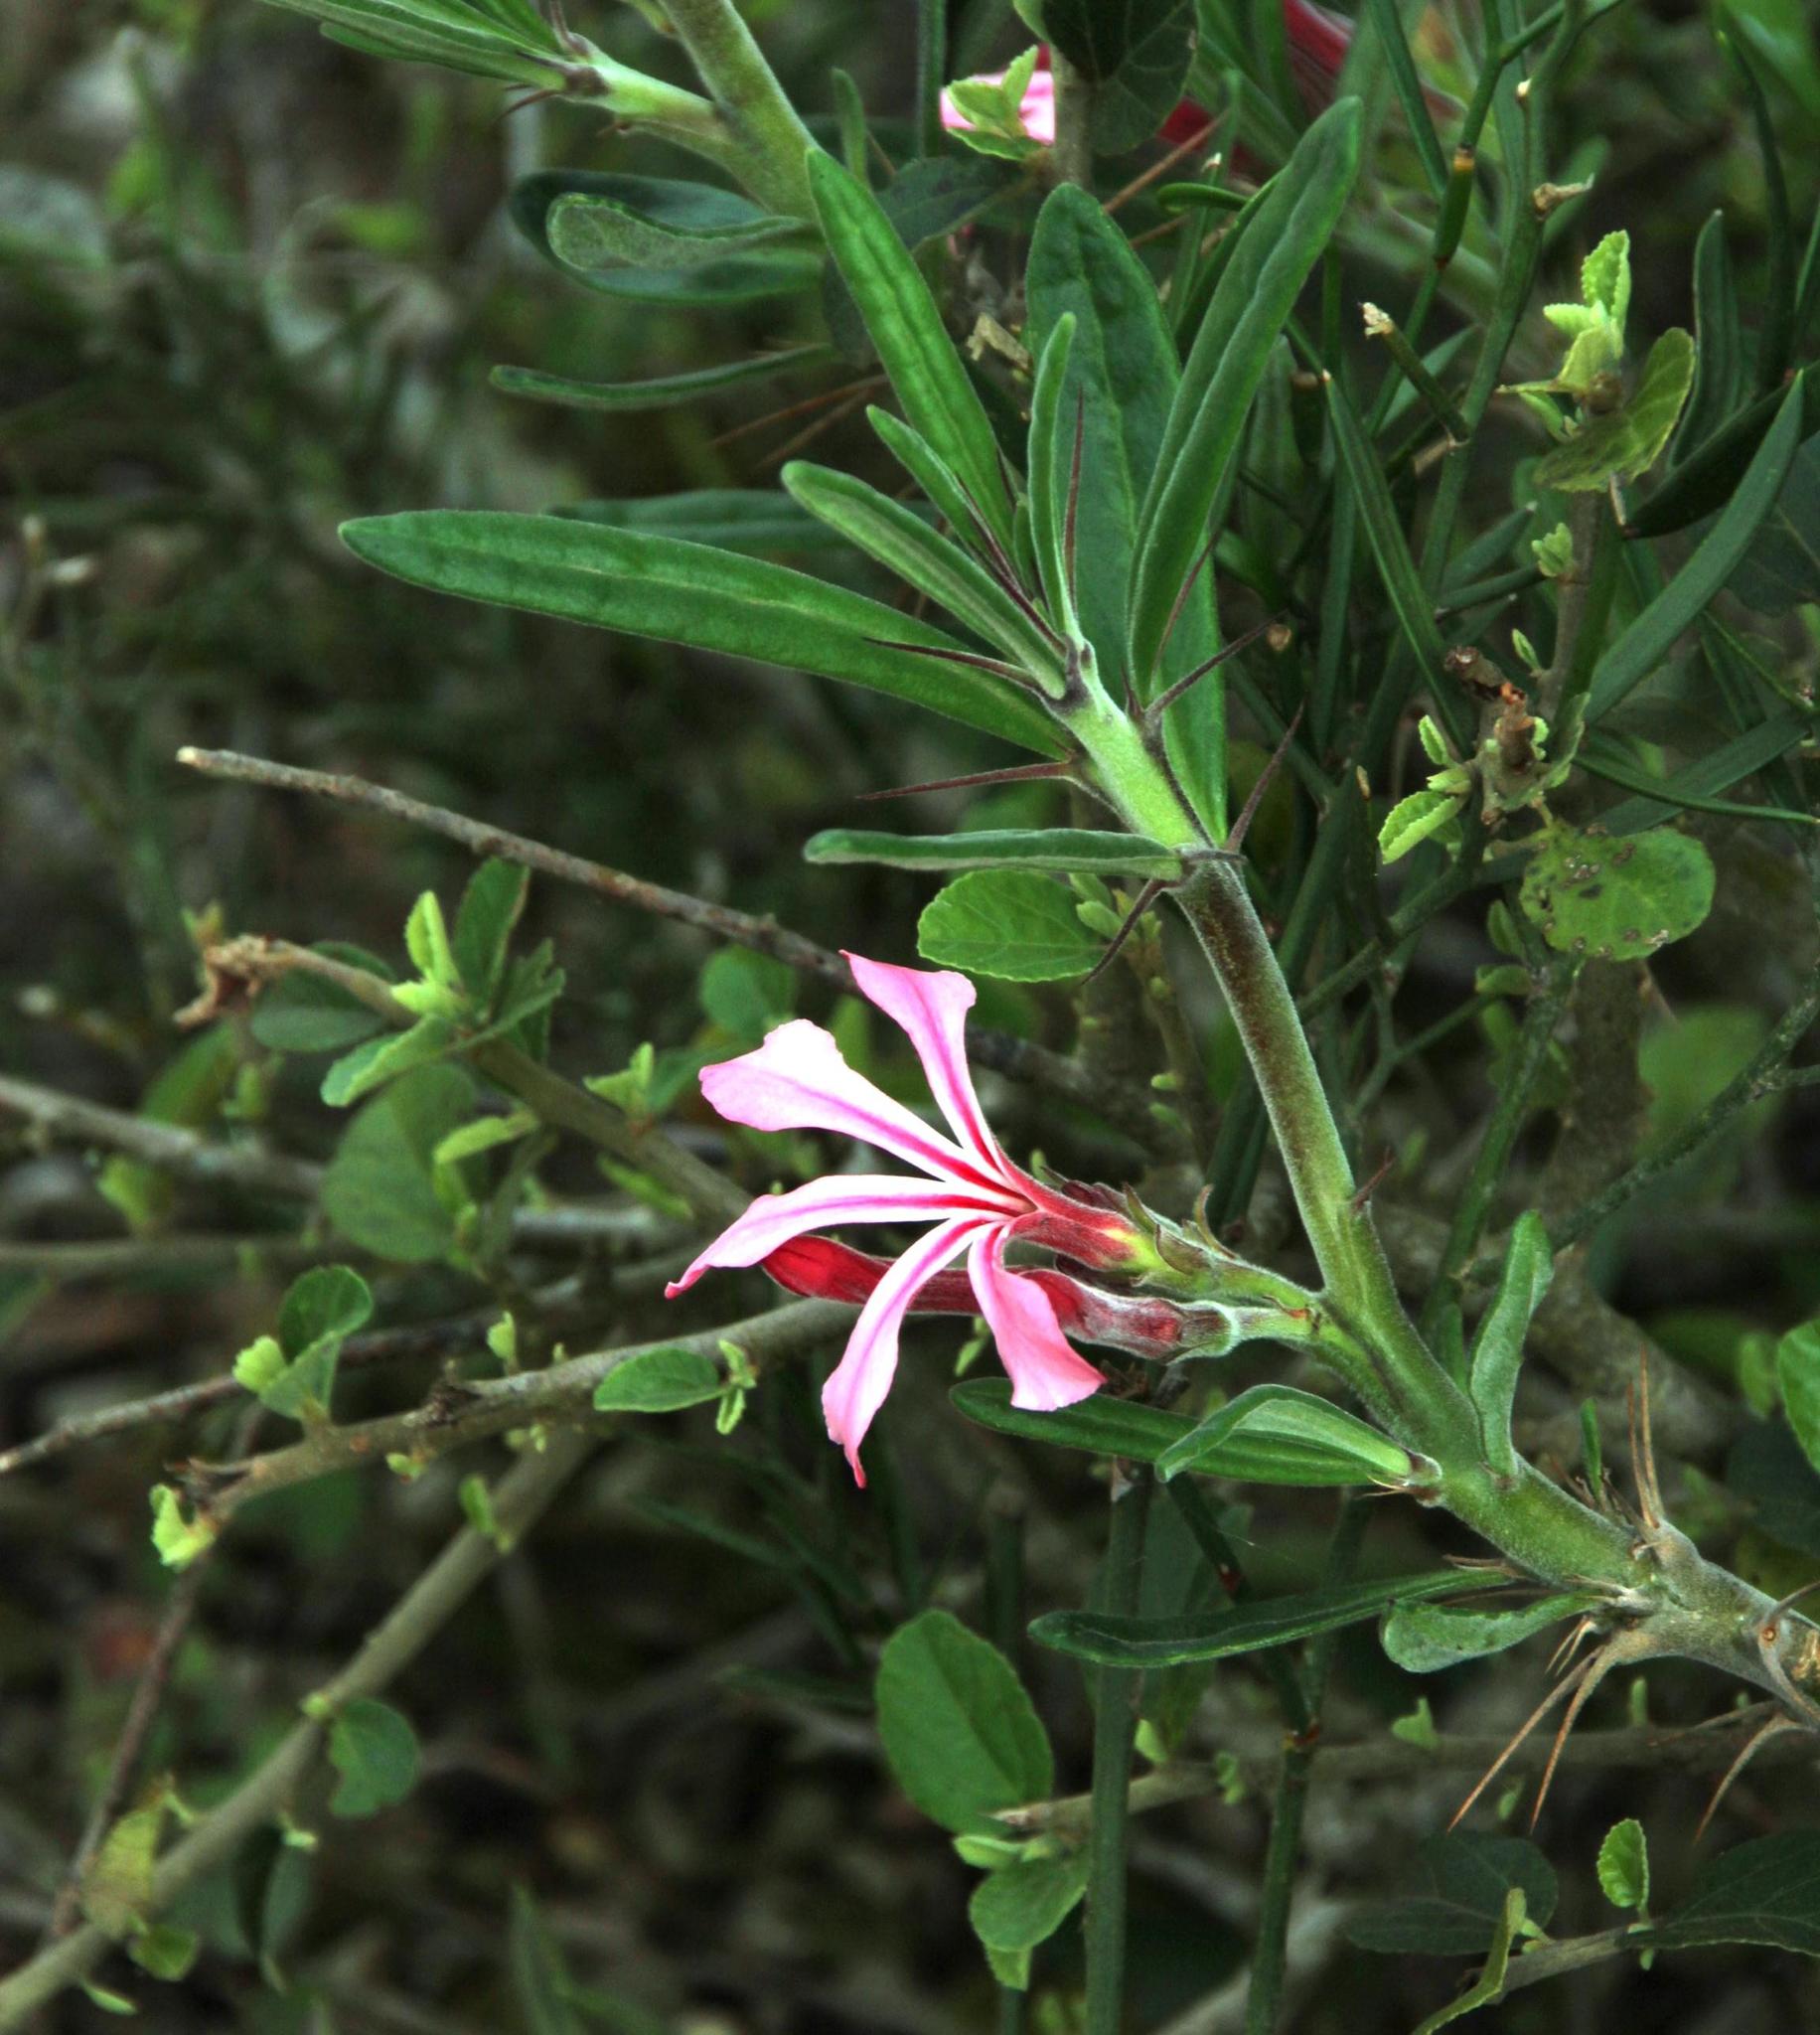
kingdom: Plantae
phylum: Tracheophyta
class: Magnoliopsida
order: Gentianales
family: Apocynaceae
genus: Pachypodium
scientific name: Pachypodium succulentum
